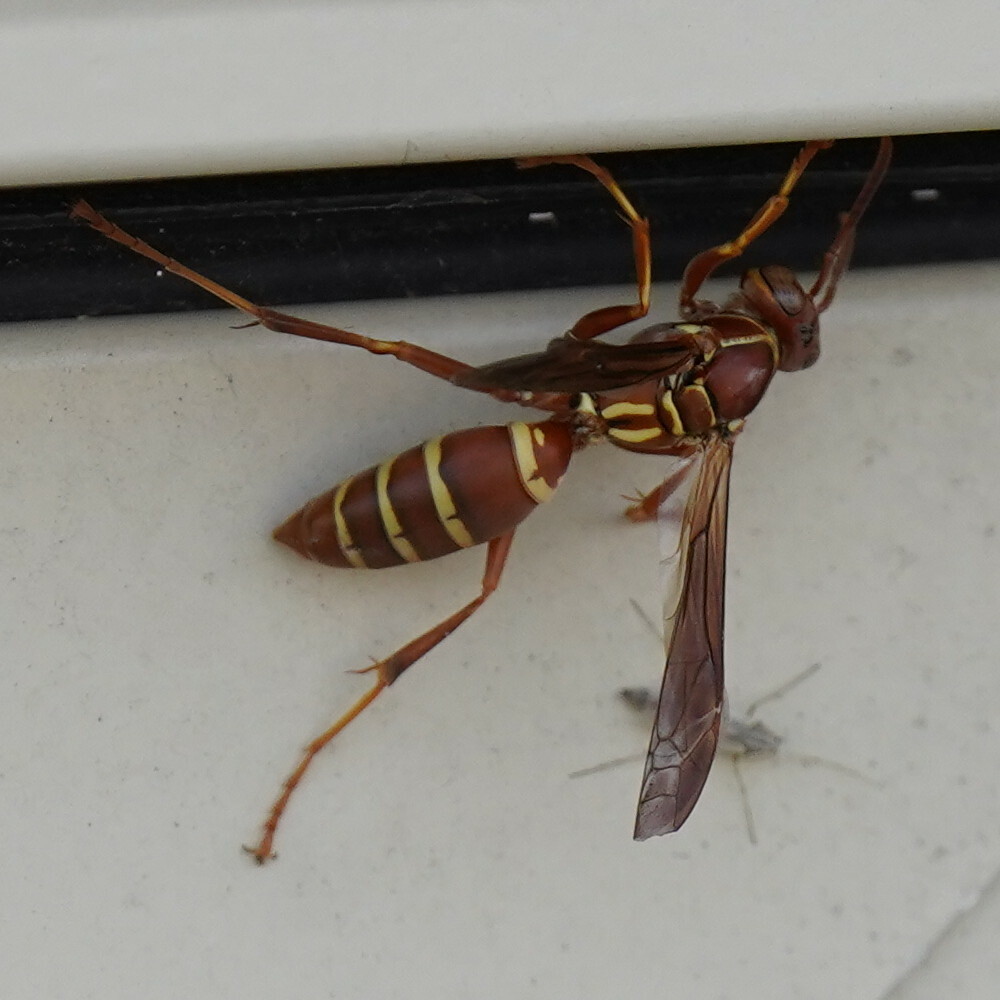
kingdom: Animalia
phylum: Arthropoda
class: Insecta
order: Hymenoptera
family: Eumenidae
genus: Polistes
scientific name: Polistes bellicosus
